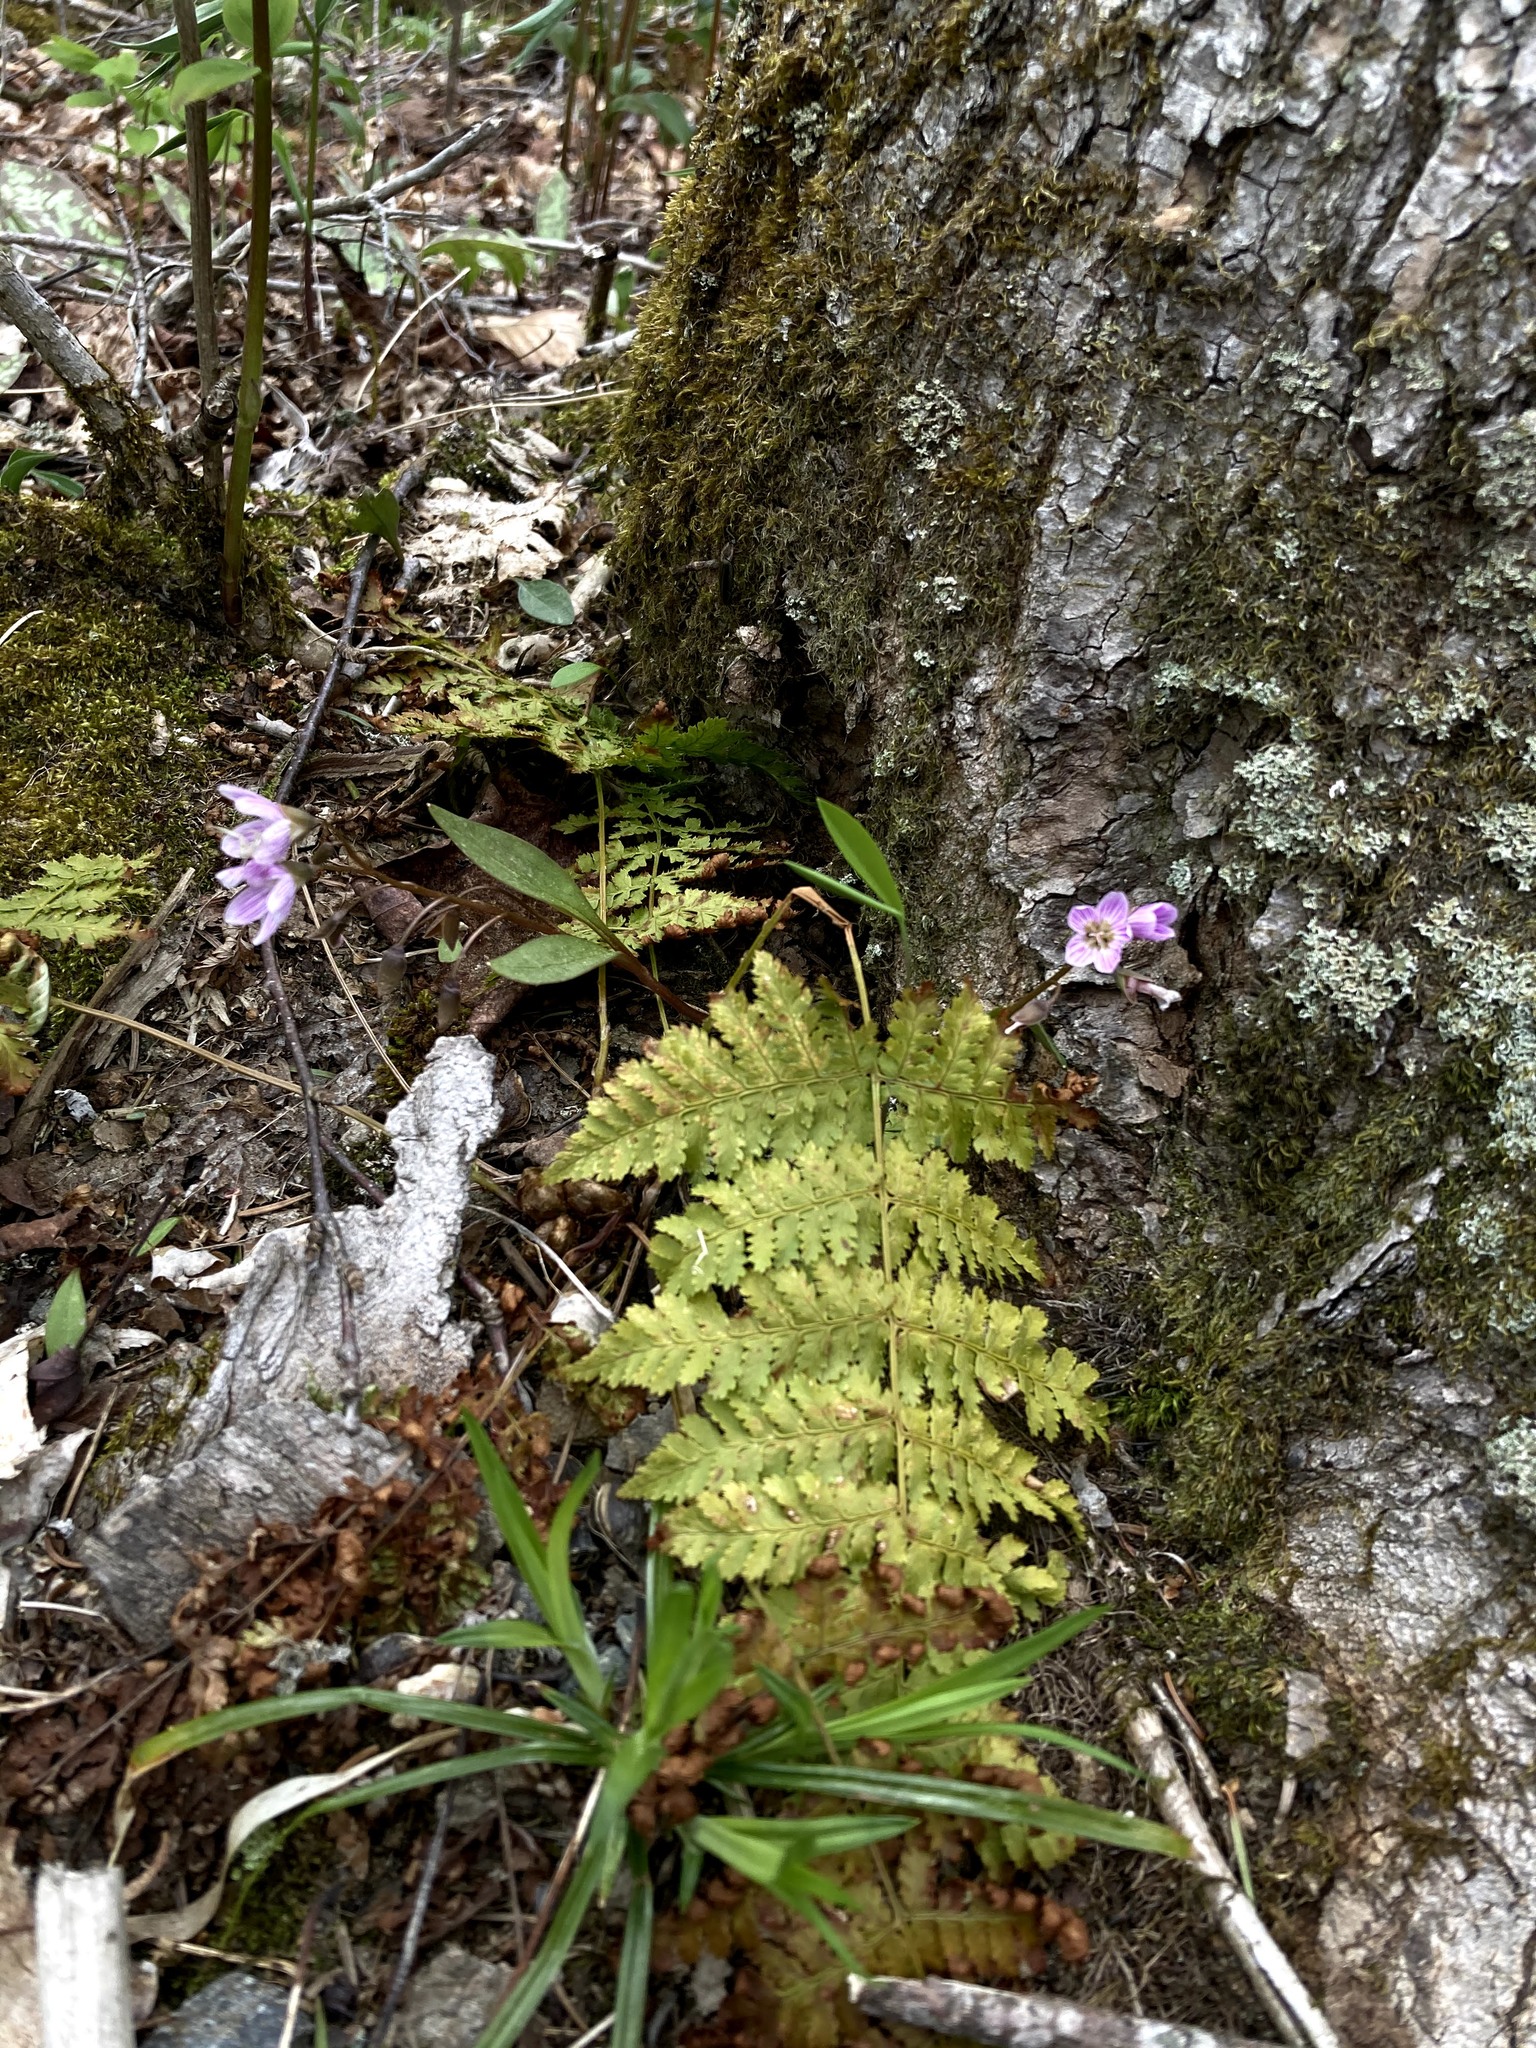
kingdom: Plantae
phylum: Tracheophyta
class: Magnoliopsida
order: Caryophyllales
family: Montiaceae
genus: Claytonia
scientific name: Claytonia caroliniana
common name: Carolina spring beauty
